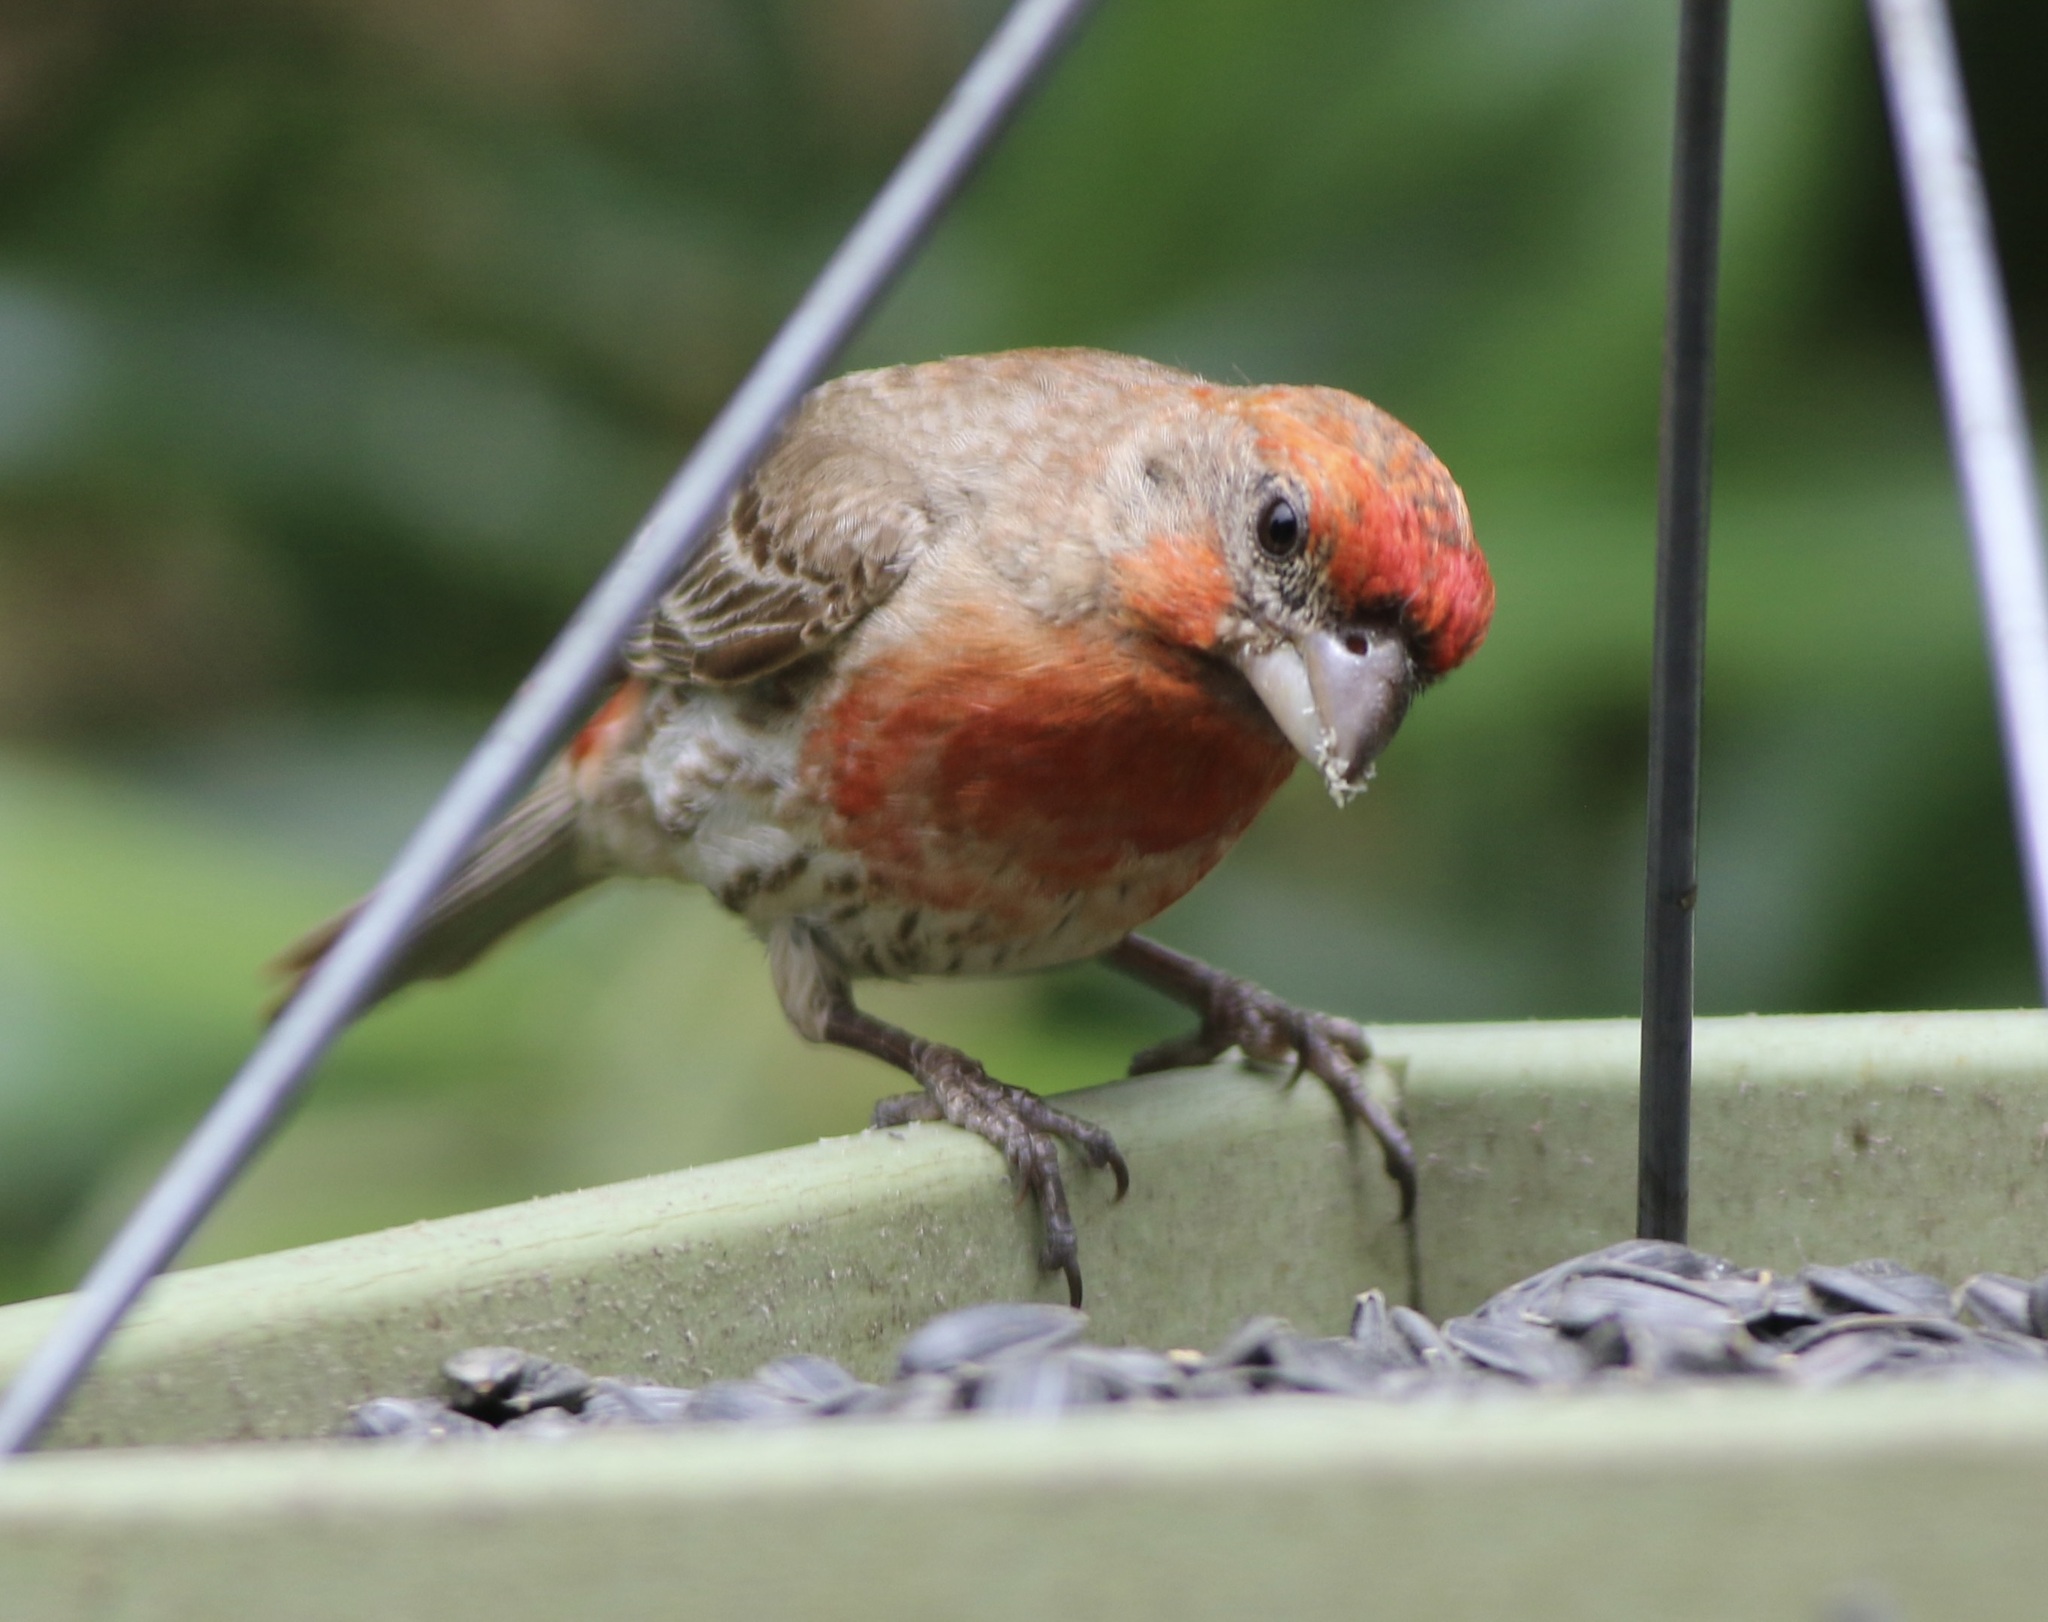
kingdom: Animalia
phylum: Chordata
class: Aves
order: Passeriformes
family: Fringillidae
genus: Haemorhous
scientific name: Haemorhous mexicanus
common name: House finch
